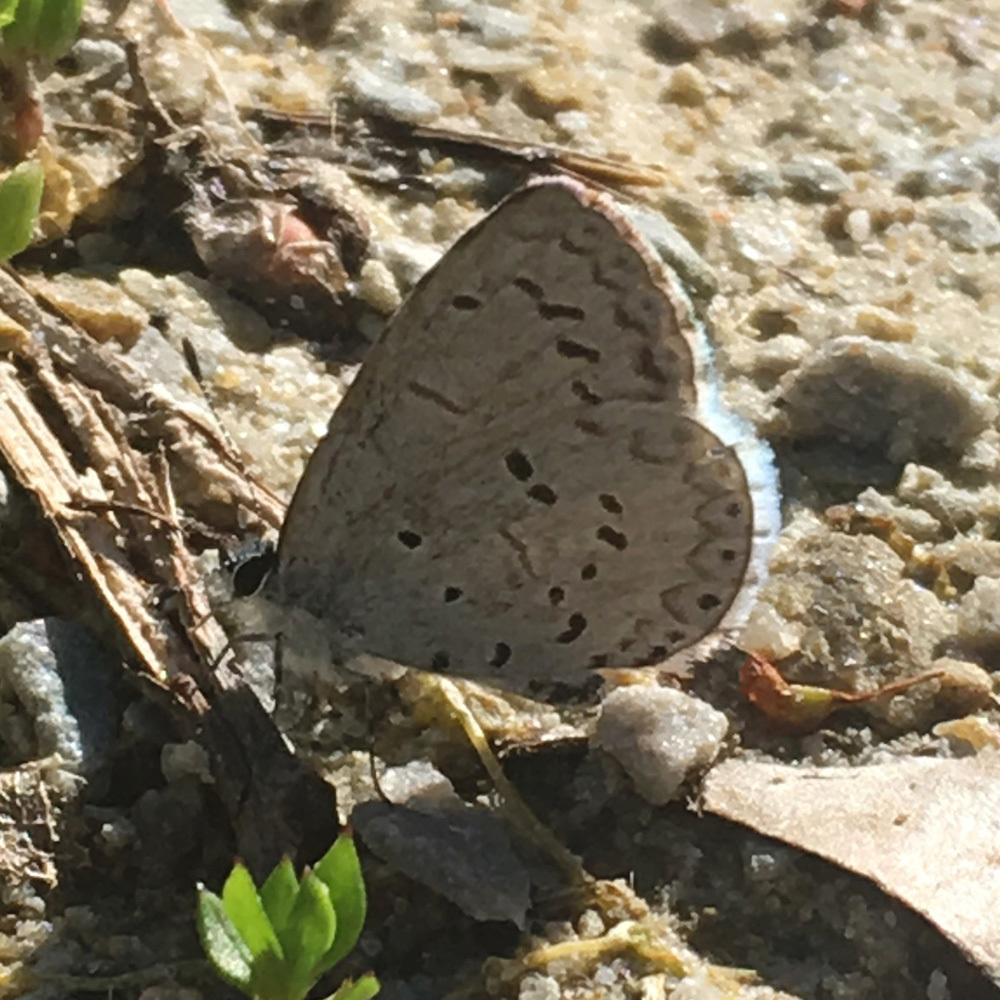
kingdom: Animalia
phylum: Arthropoda
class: Insecta
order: Lepidoptera
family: Lycaenidae
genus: Celastrina
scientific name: Celastrina ladon
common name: Spring azure
